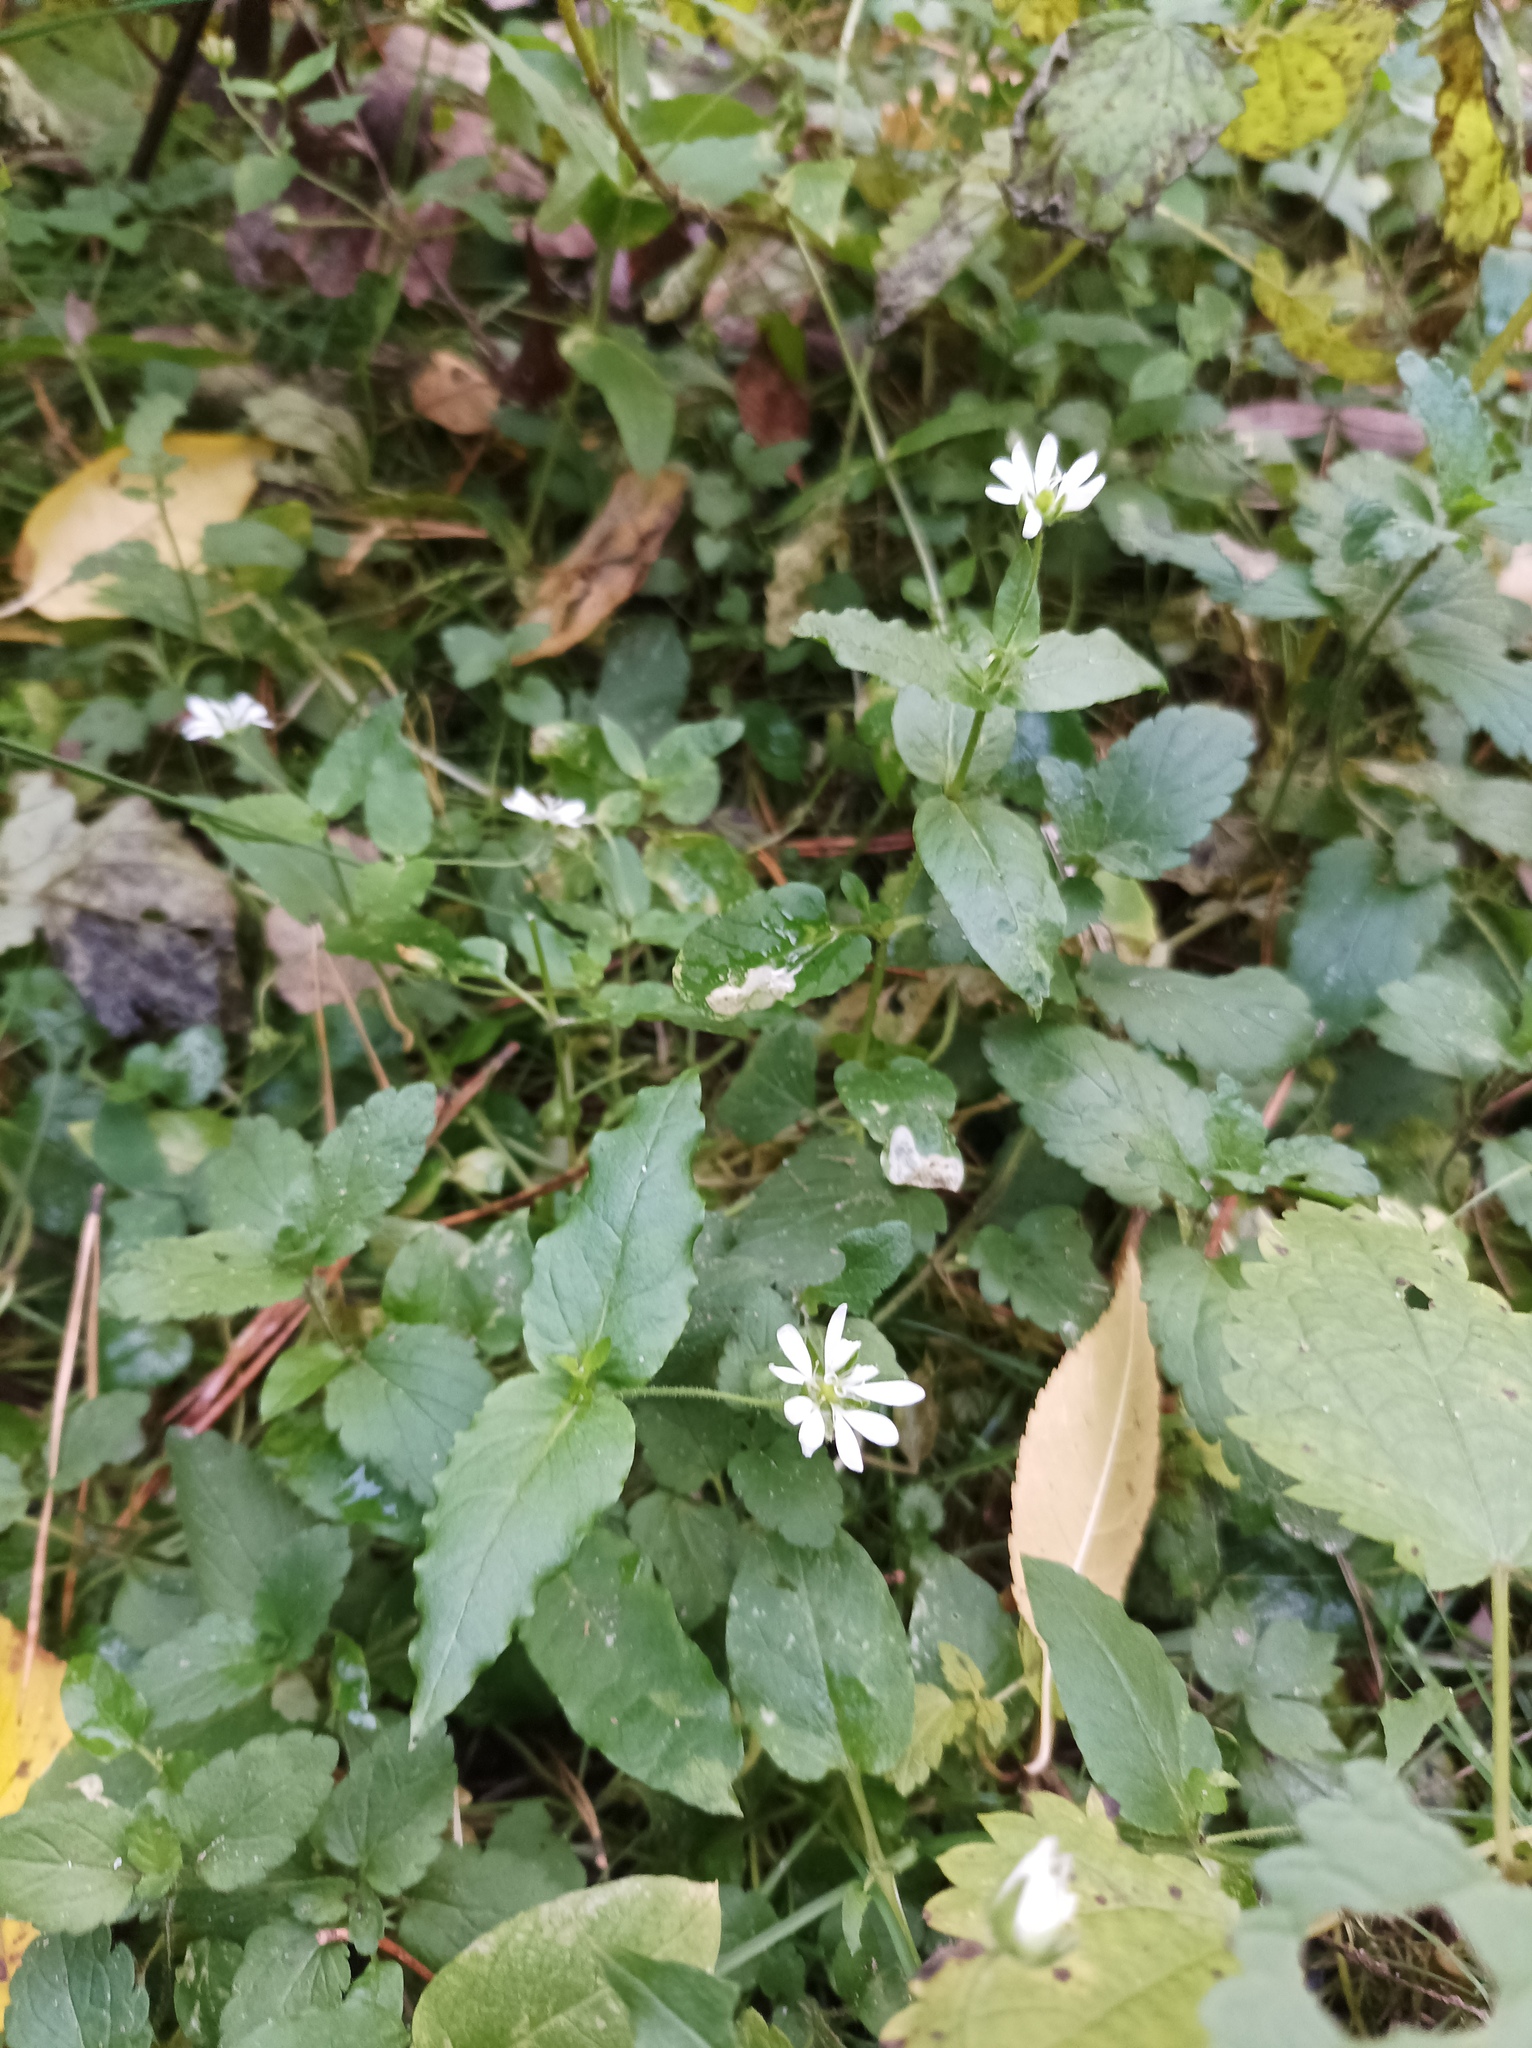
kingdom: Plantae
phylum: Tracheophyta
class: Magnoliopsida
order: Caryophyllales
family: Caryophyllaceae
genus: Stellaria
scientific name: Stellaria aquatica
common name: Water chickweed
